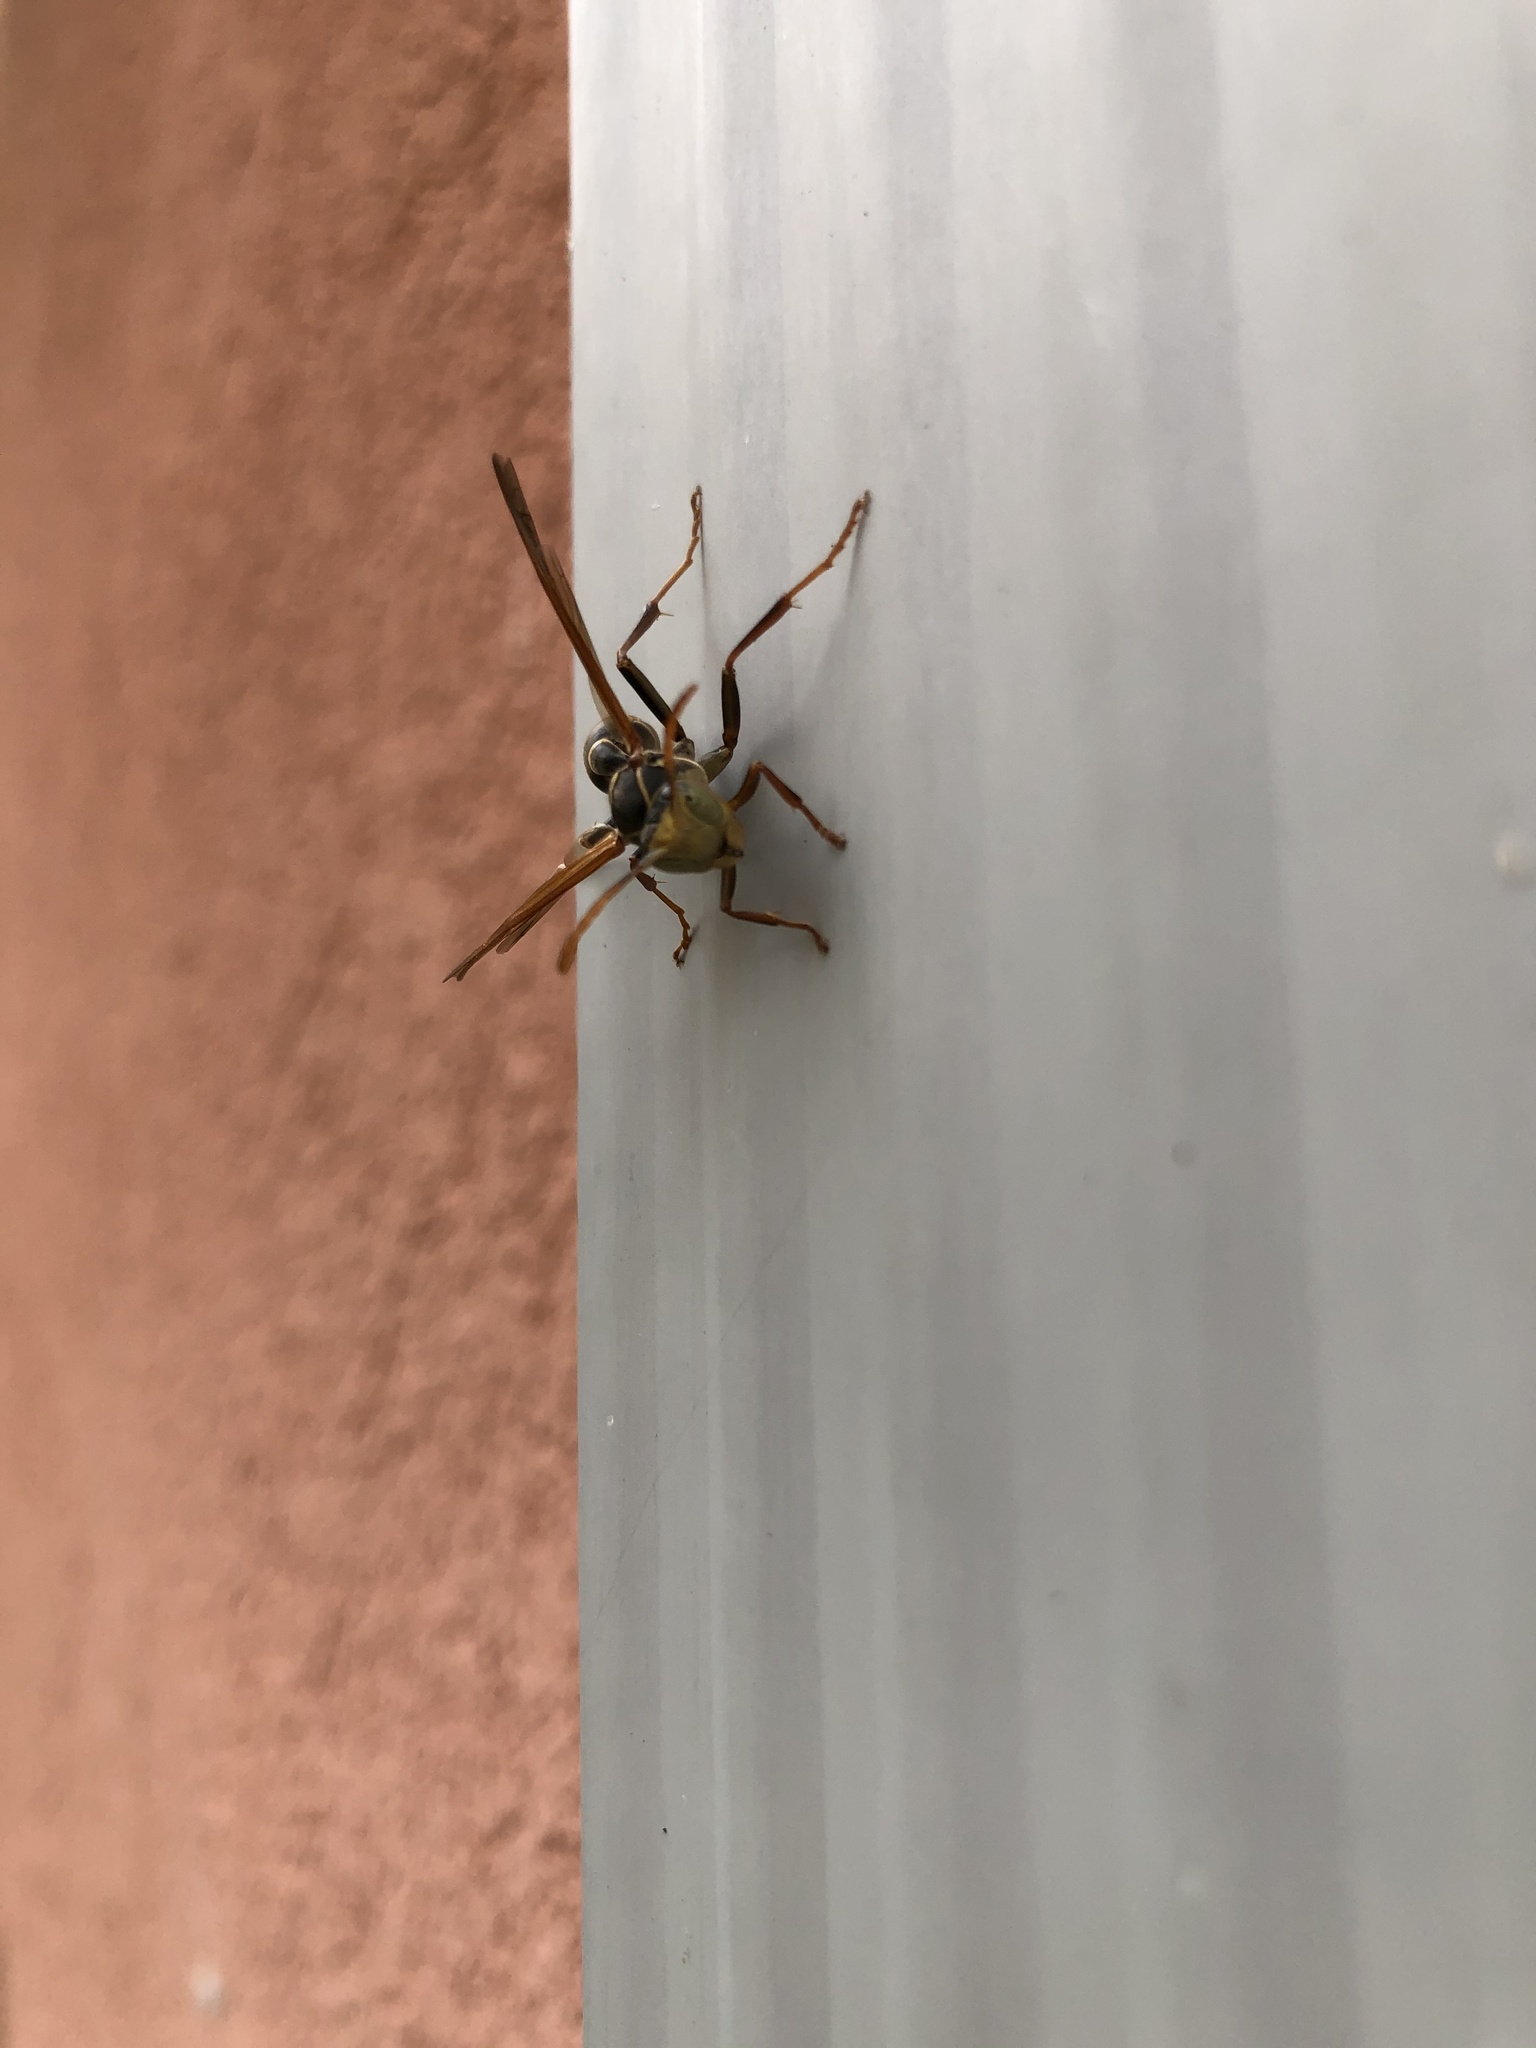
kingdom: Animalia
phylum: Arthropoda
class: Insecta
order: Hymenoptera
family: Vespidae
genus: Mischocyttarus
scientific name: Mischocyttarus flavitarsis
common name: Wasp
